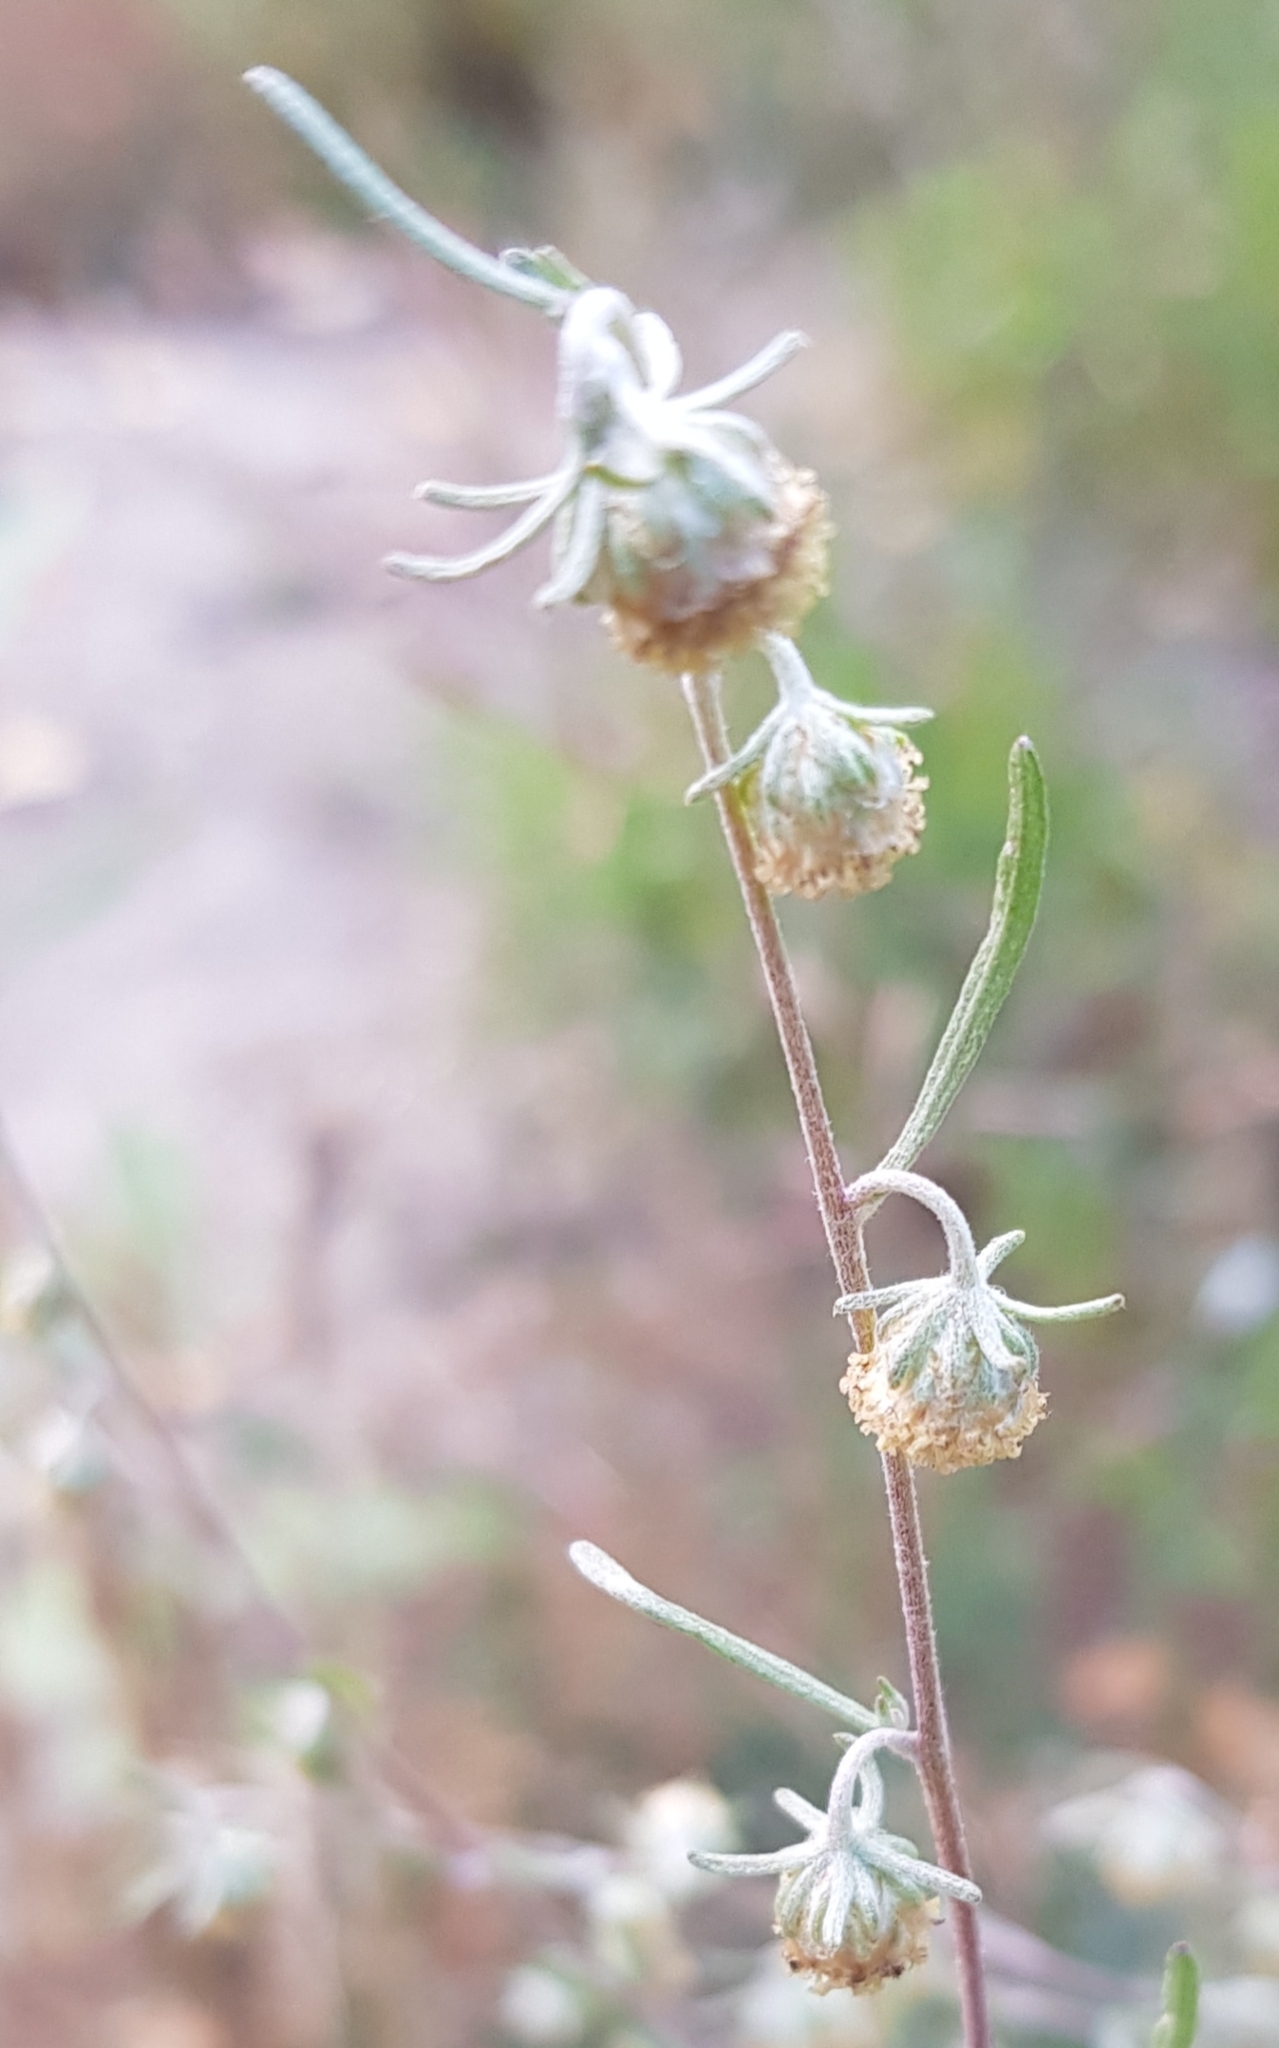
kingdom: Plantae
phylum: Tracheophyta
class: Magnoliopsida
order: Asterales
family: Asteraceae
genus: Artemisia
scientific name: Artemisia macrocephala
